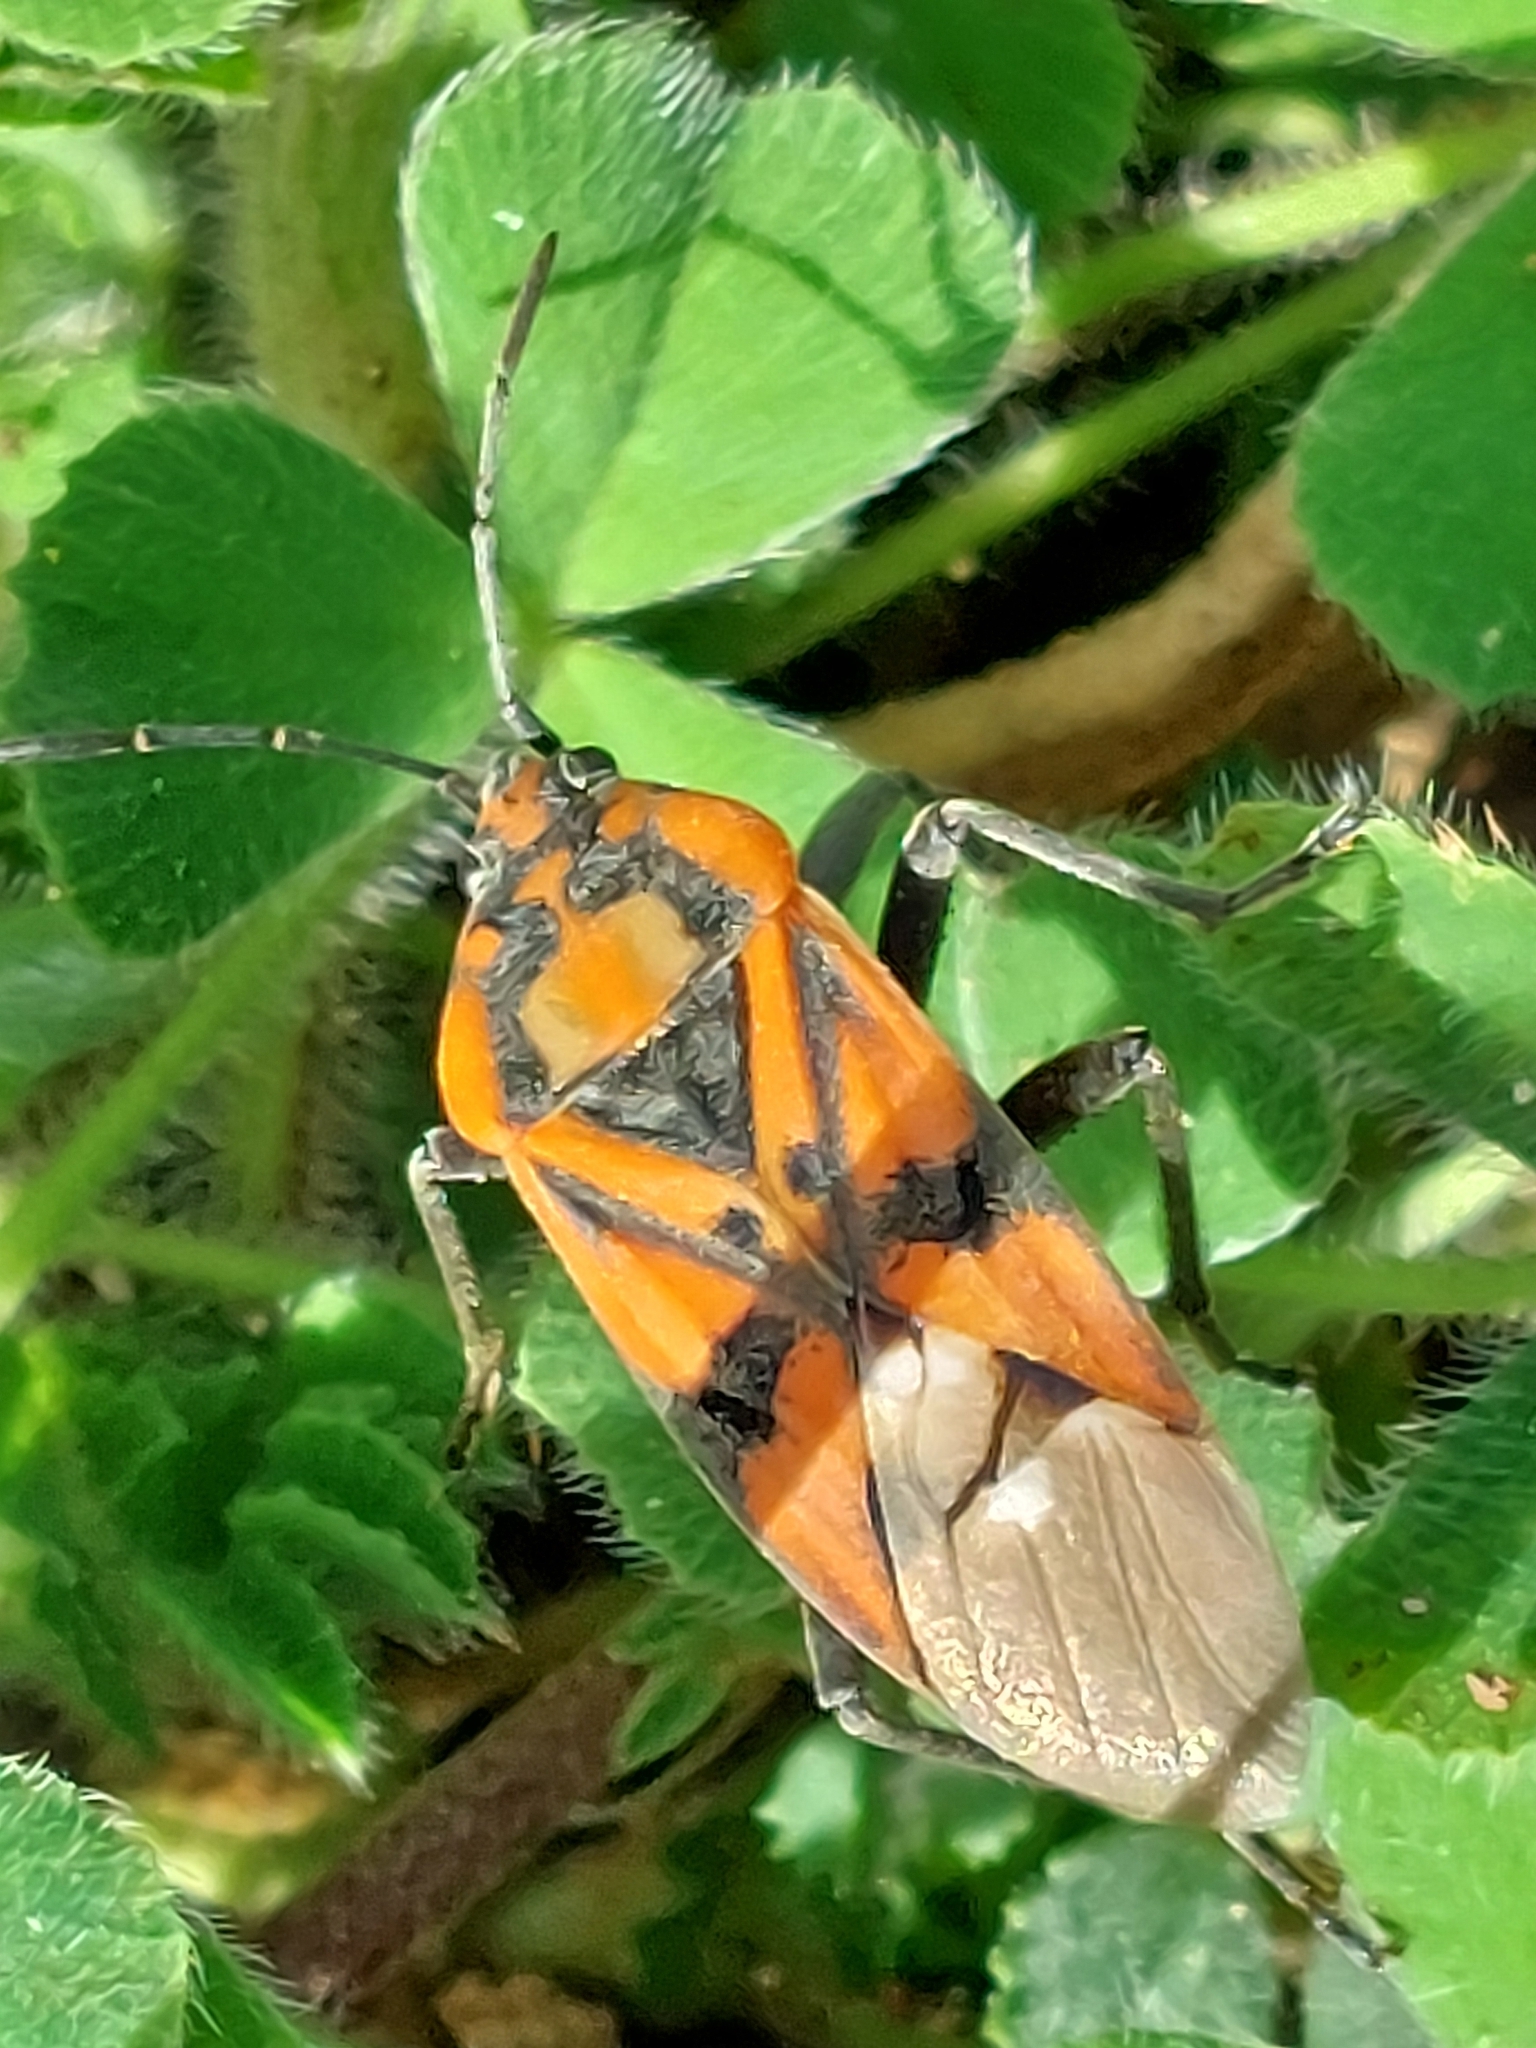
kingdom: Animalia
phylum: Arthropoda
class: Insecta
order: Hemiptera
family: Lygaeidae
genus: Spilostethus
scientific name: Spilostethus pandurus
